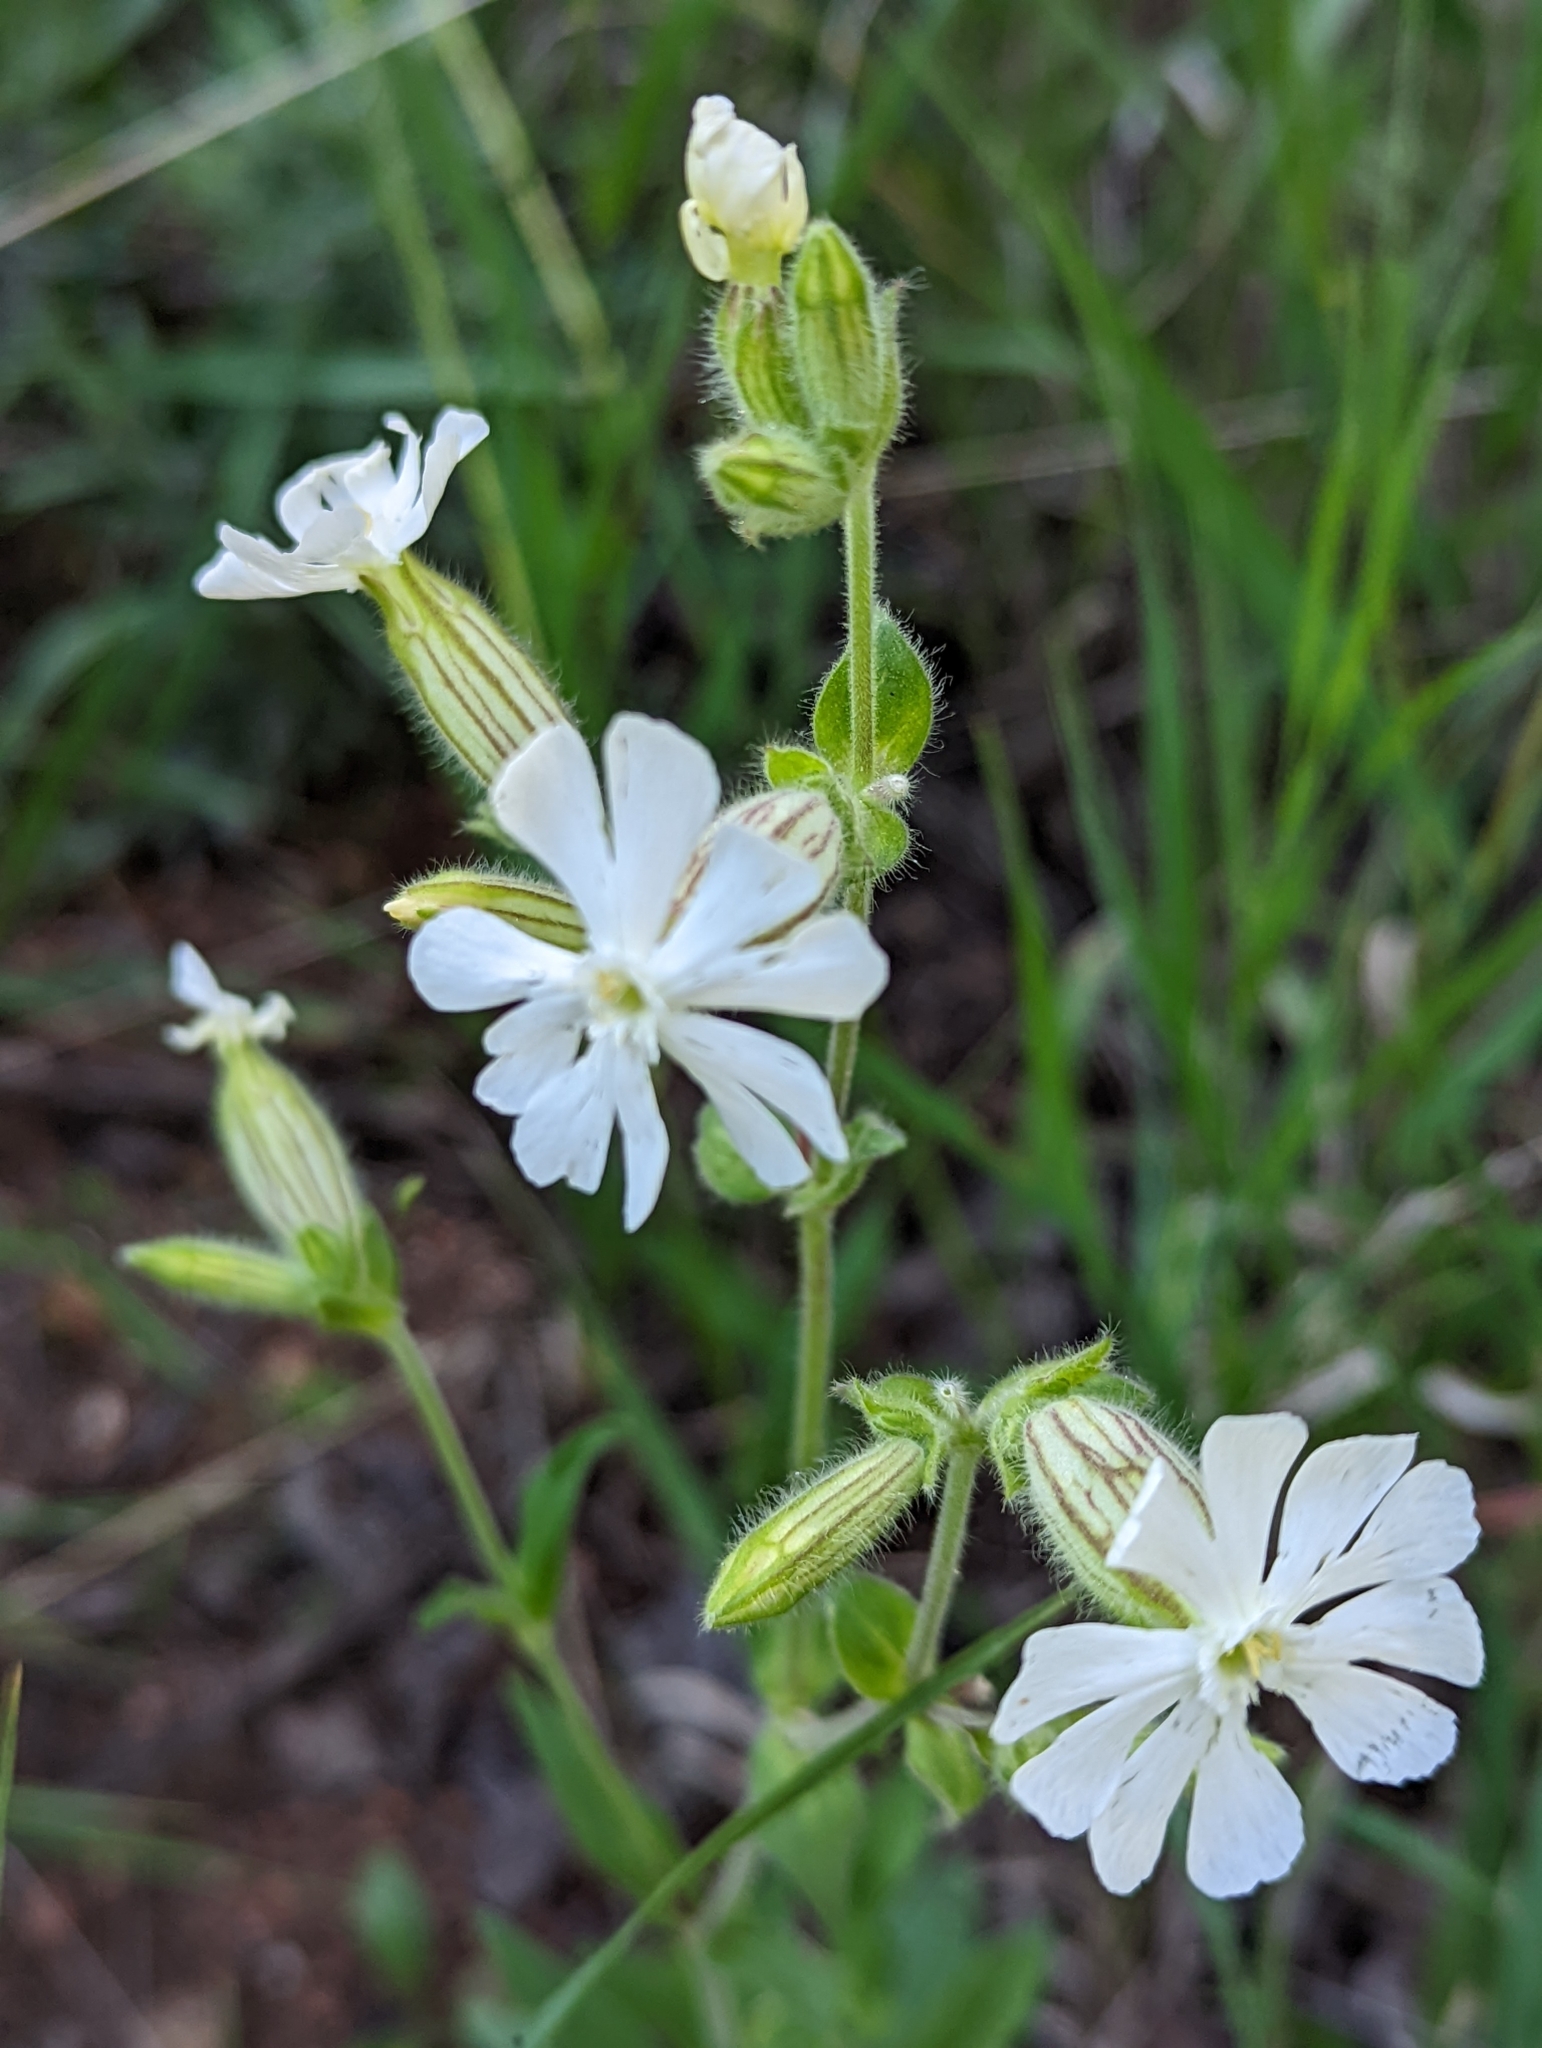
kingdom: Plantae
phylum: Tracheophyta
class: Magnoliopsida
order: Caryophyllales
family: Caryophyllaceae
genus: Silene
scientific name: Silene latifolia
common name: White campion
